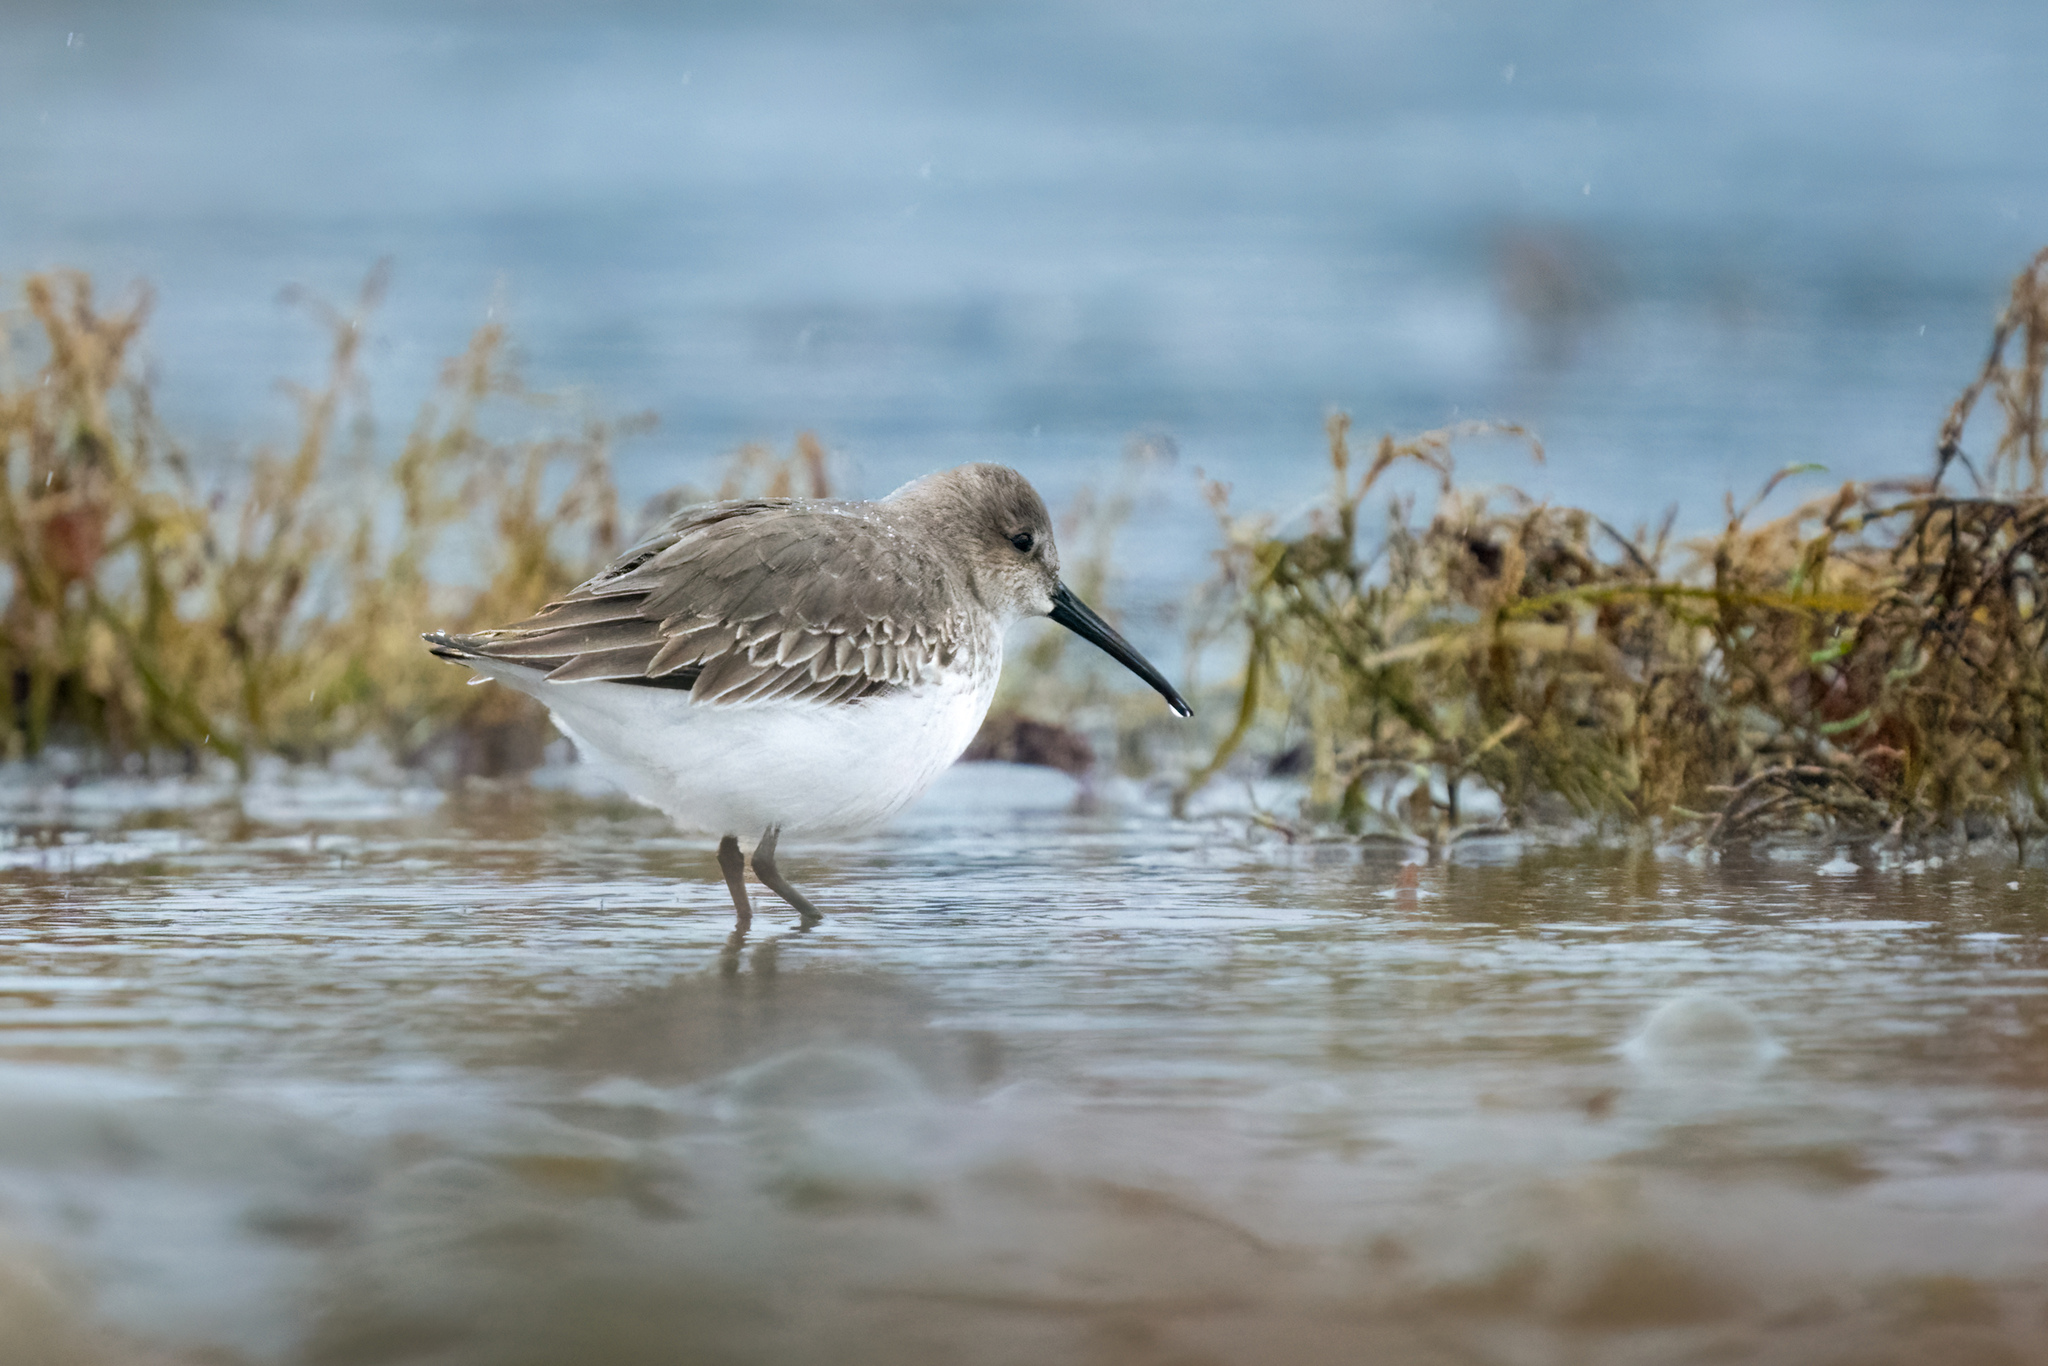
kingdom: Animalia
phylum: Chordata
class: Aves
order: Charadriiformes
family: Scolopacidae
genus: Calidris
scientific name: Calidris alpina
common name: Dunlin
